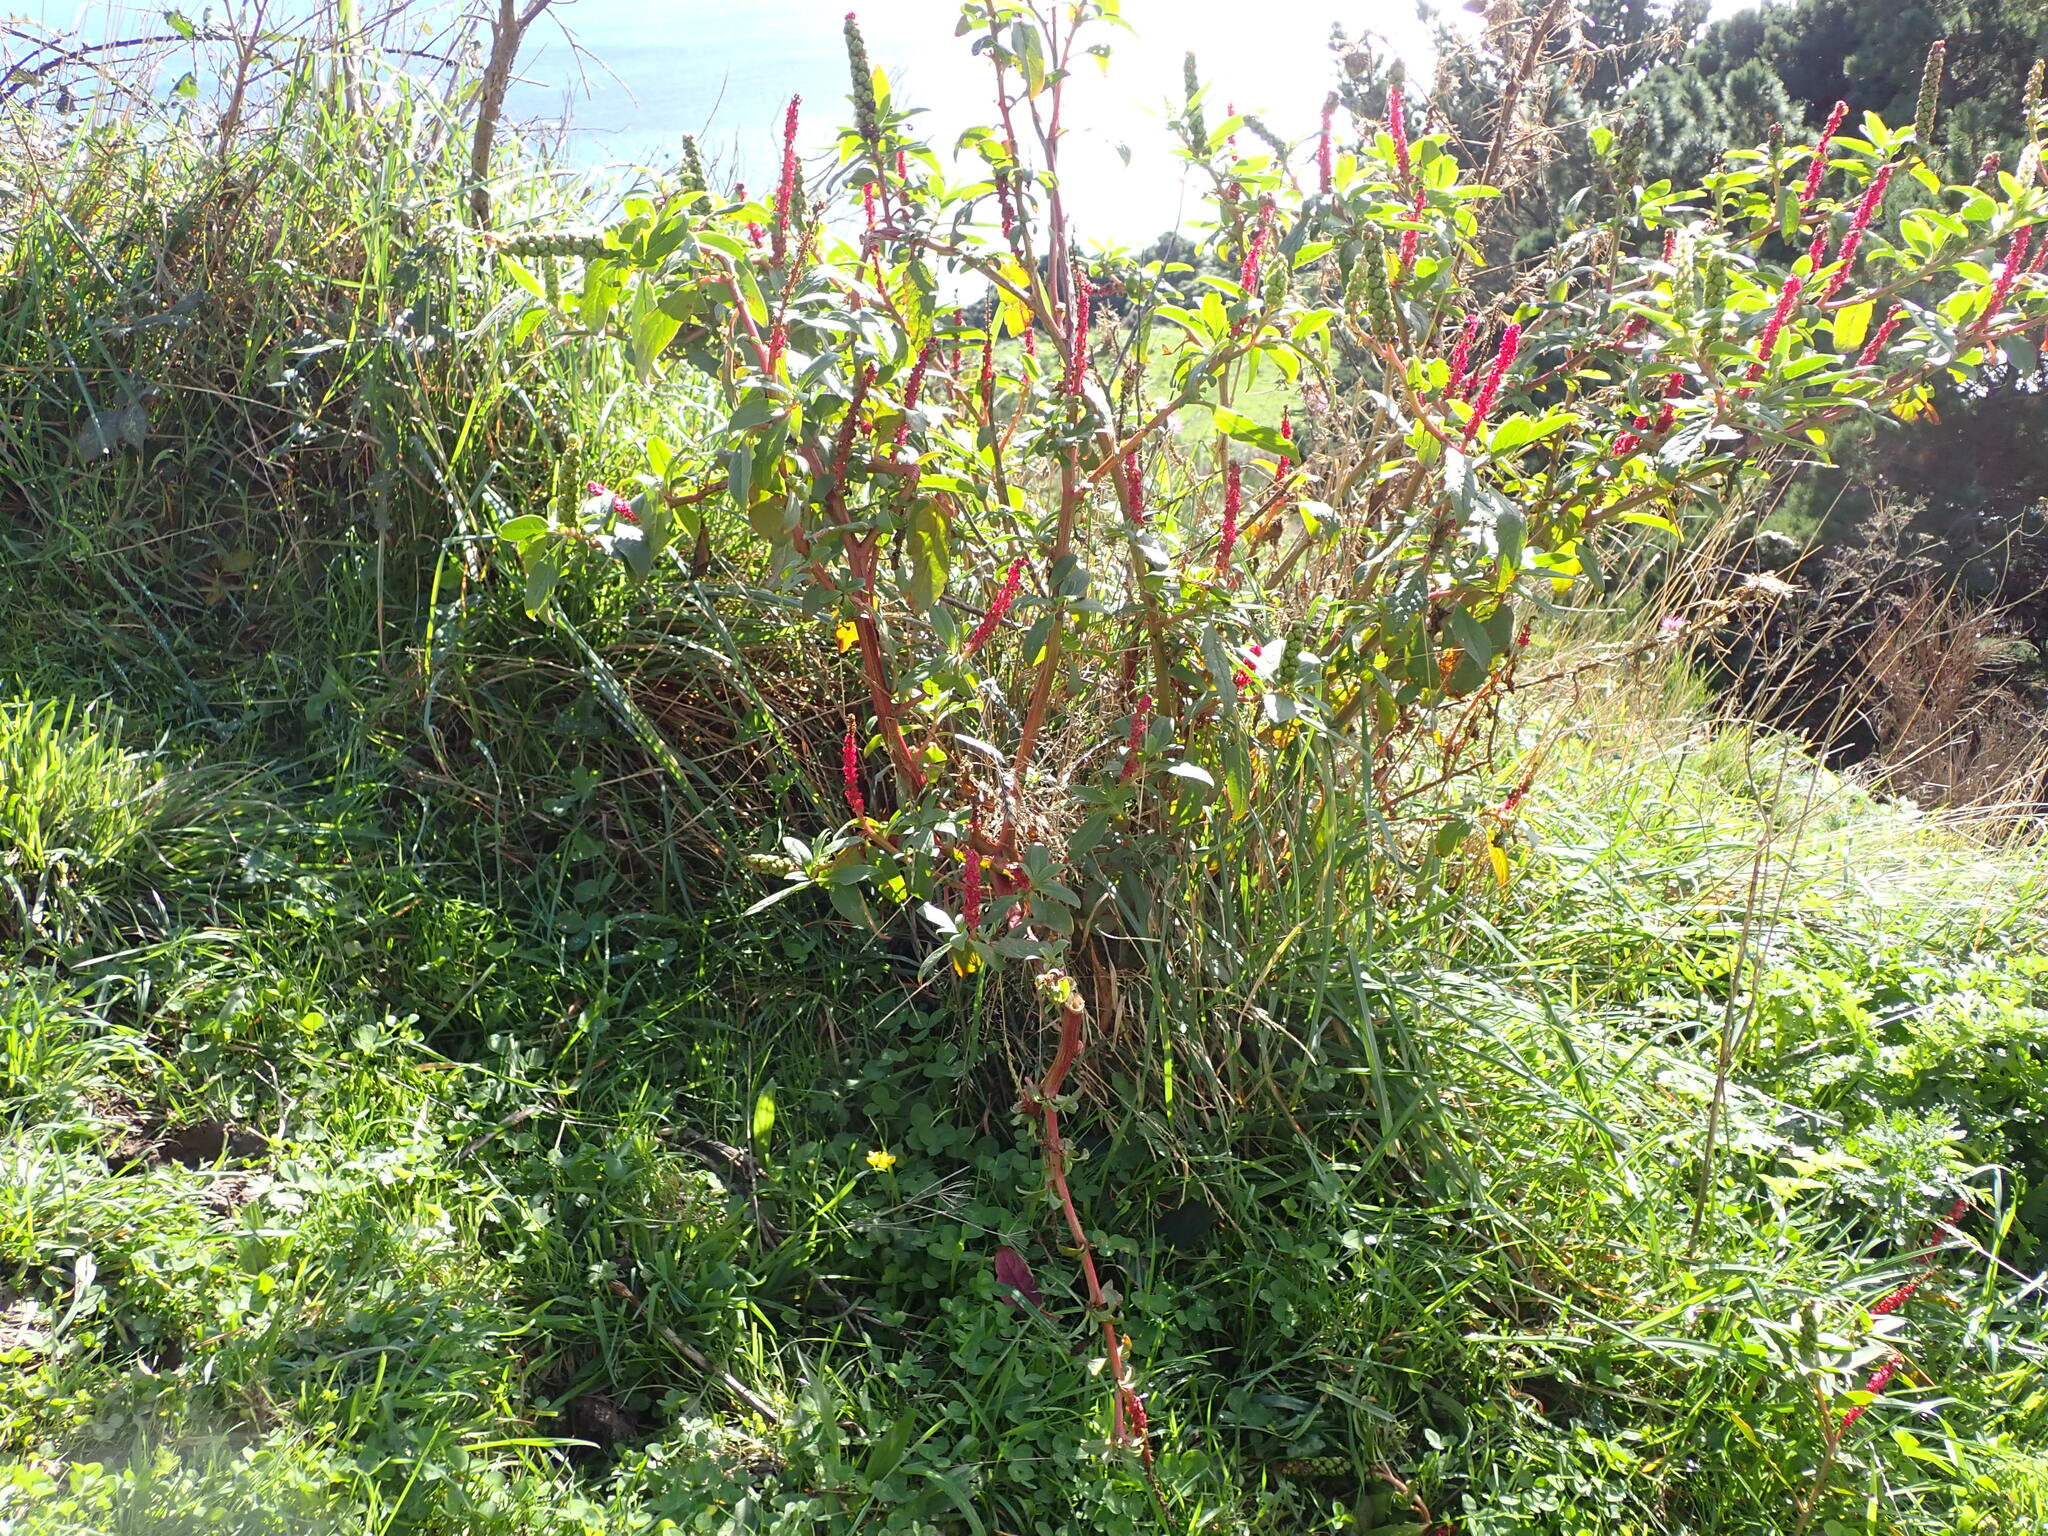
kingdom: Plantae
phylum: Tracheophyta
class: Magnoliopsida
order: Caryophyllales
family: Phytolaccaceae
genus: Phytolacca
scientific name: Phytolacca icosandra
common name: Button pokeweed
